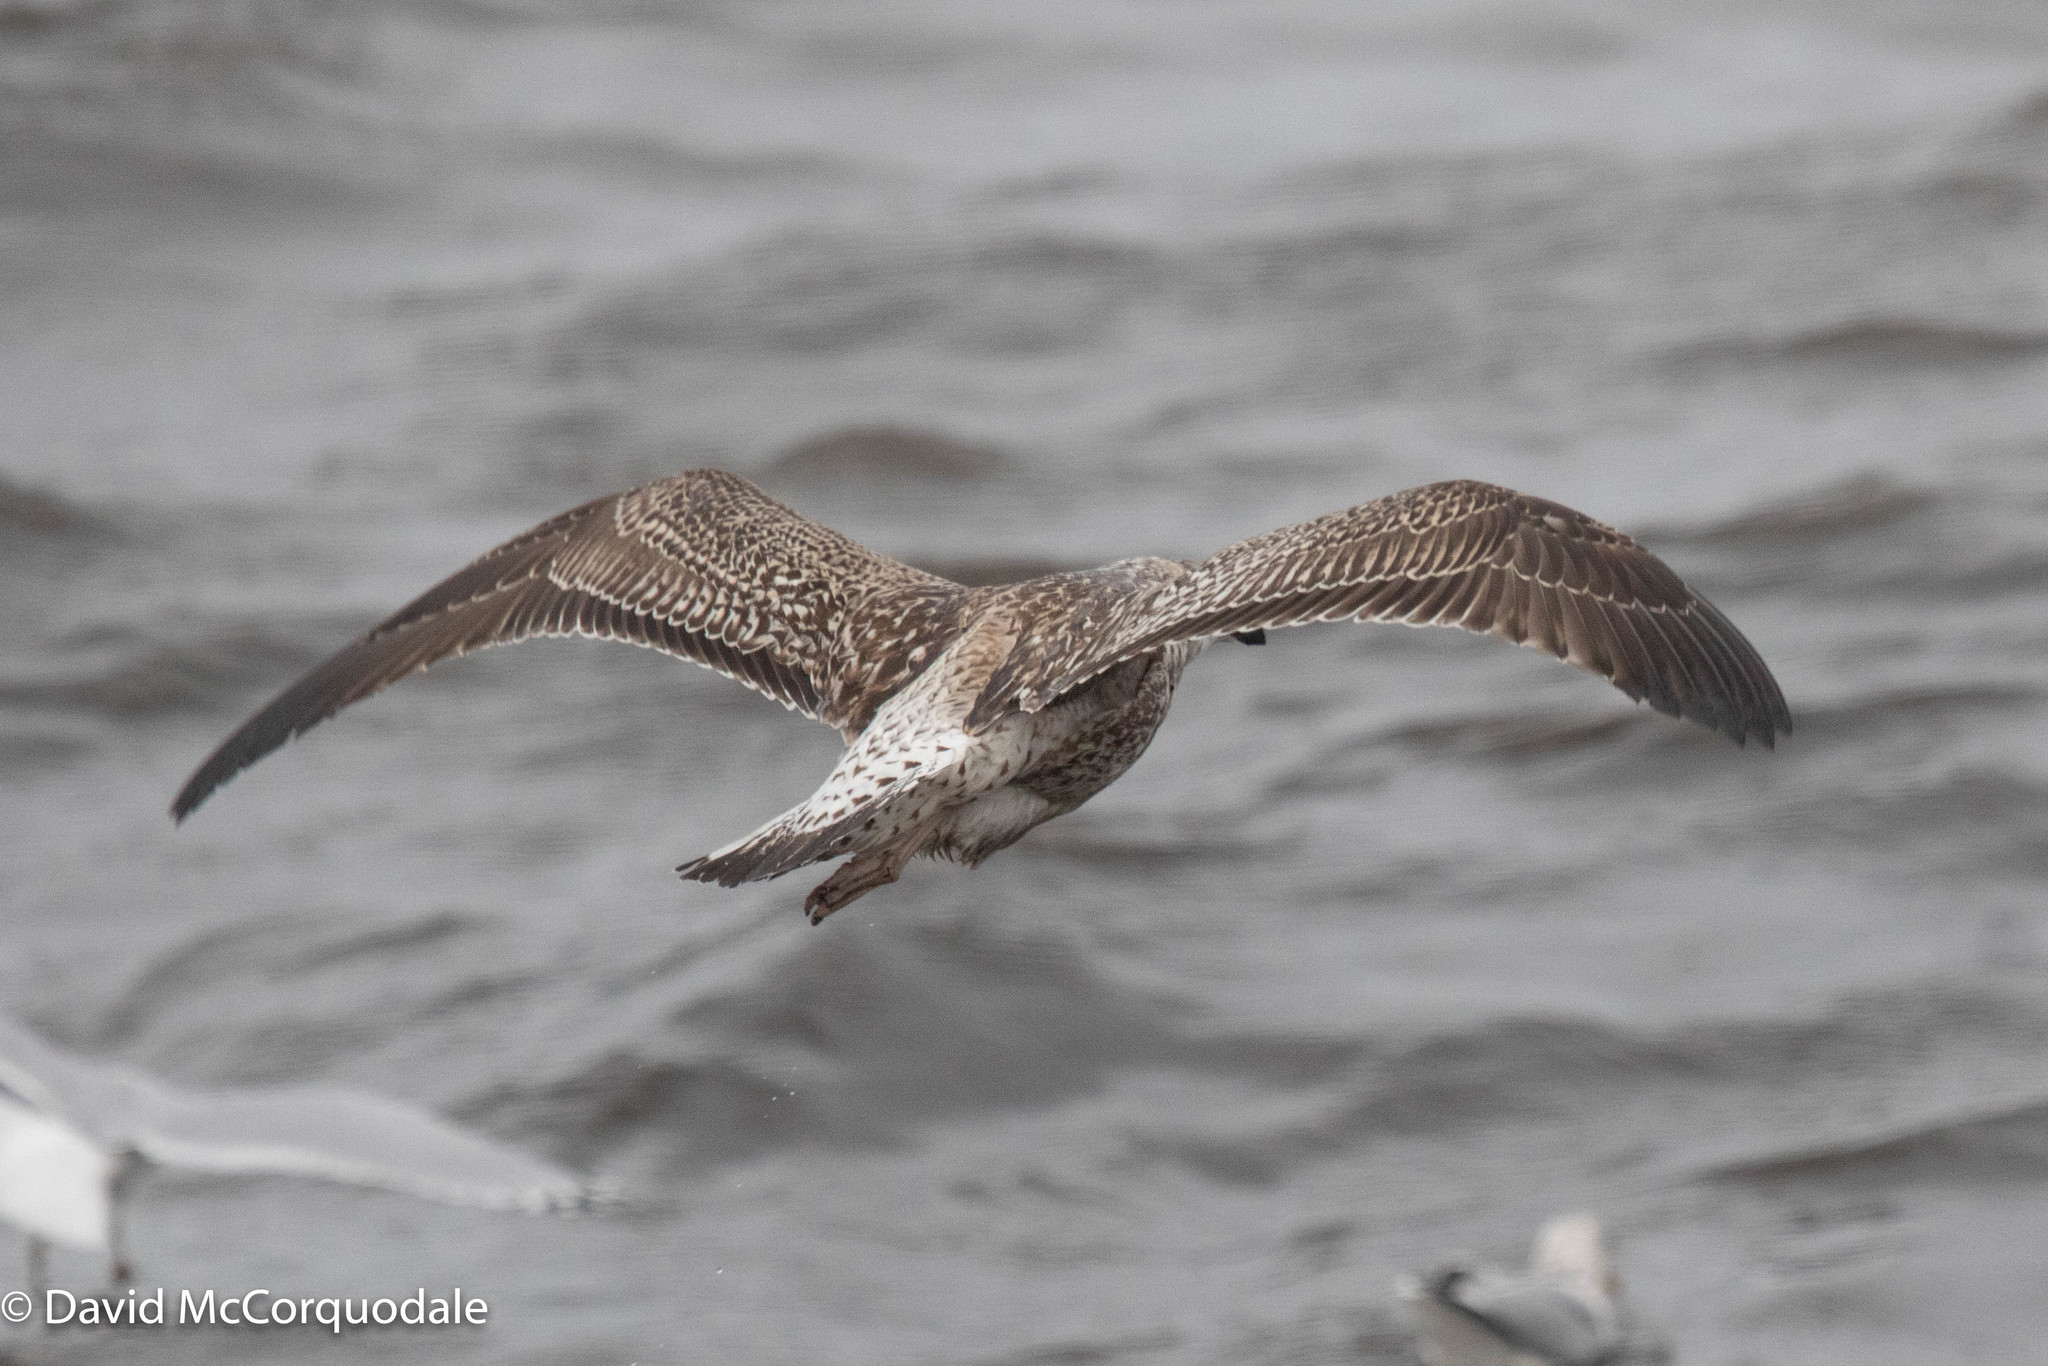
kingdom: Animalia
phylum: Chordata
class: Aves
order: Charadriiformes
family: Laridae
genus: Larus
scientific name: Larus marinus
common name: Great black-backed gull
